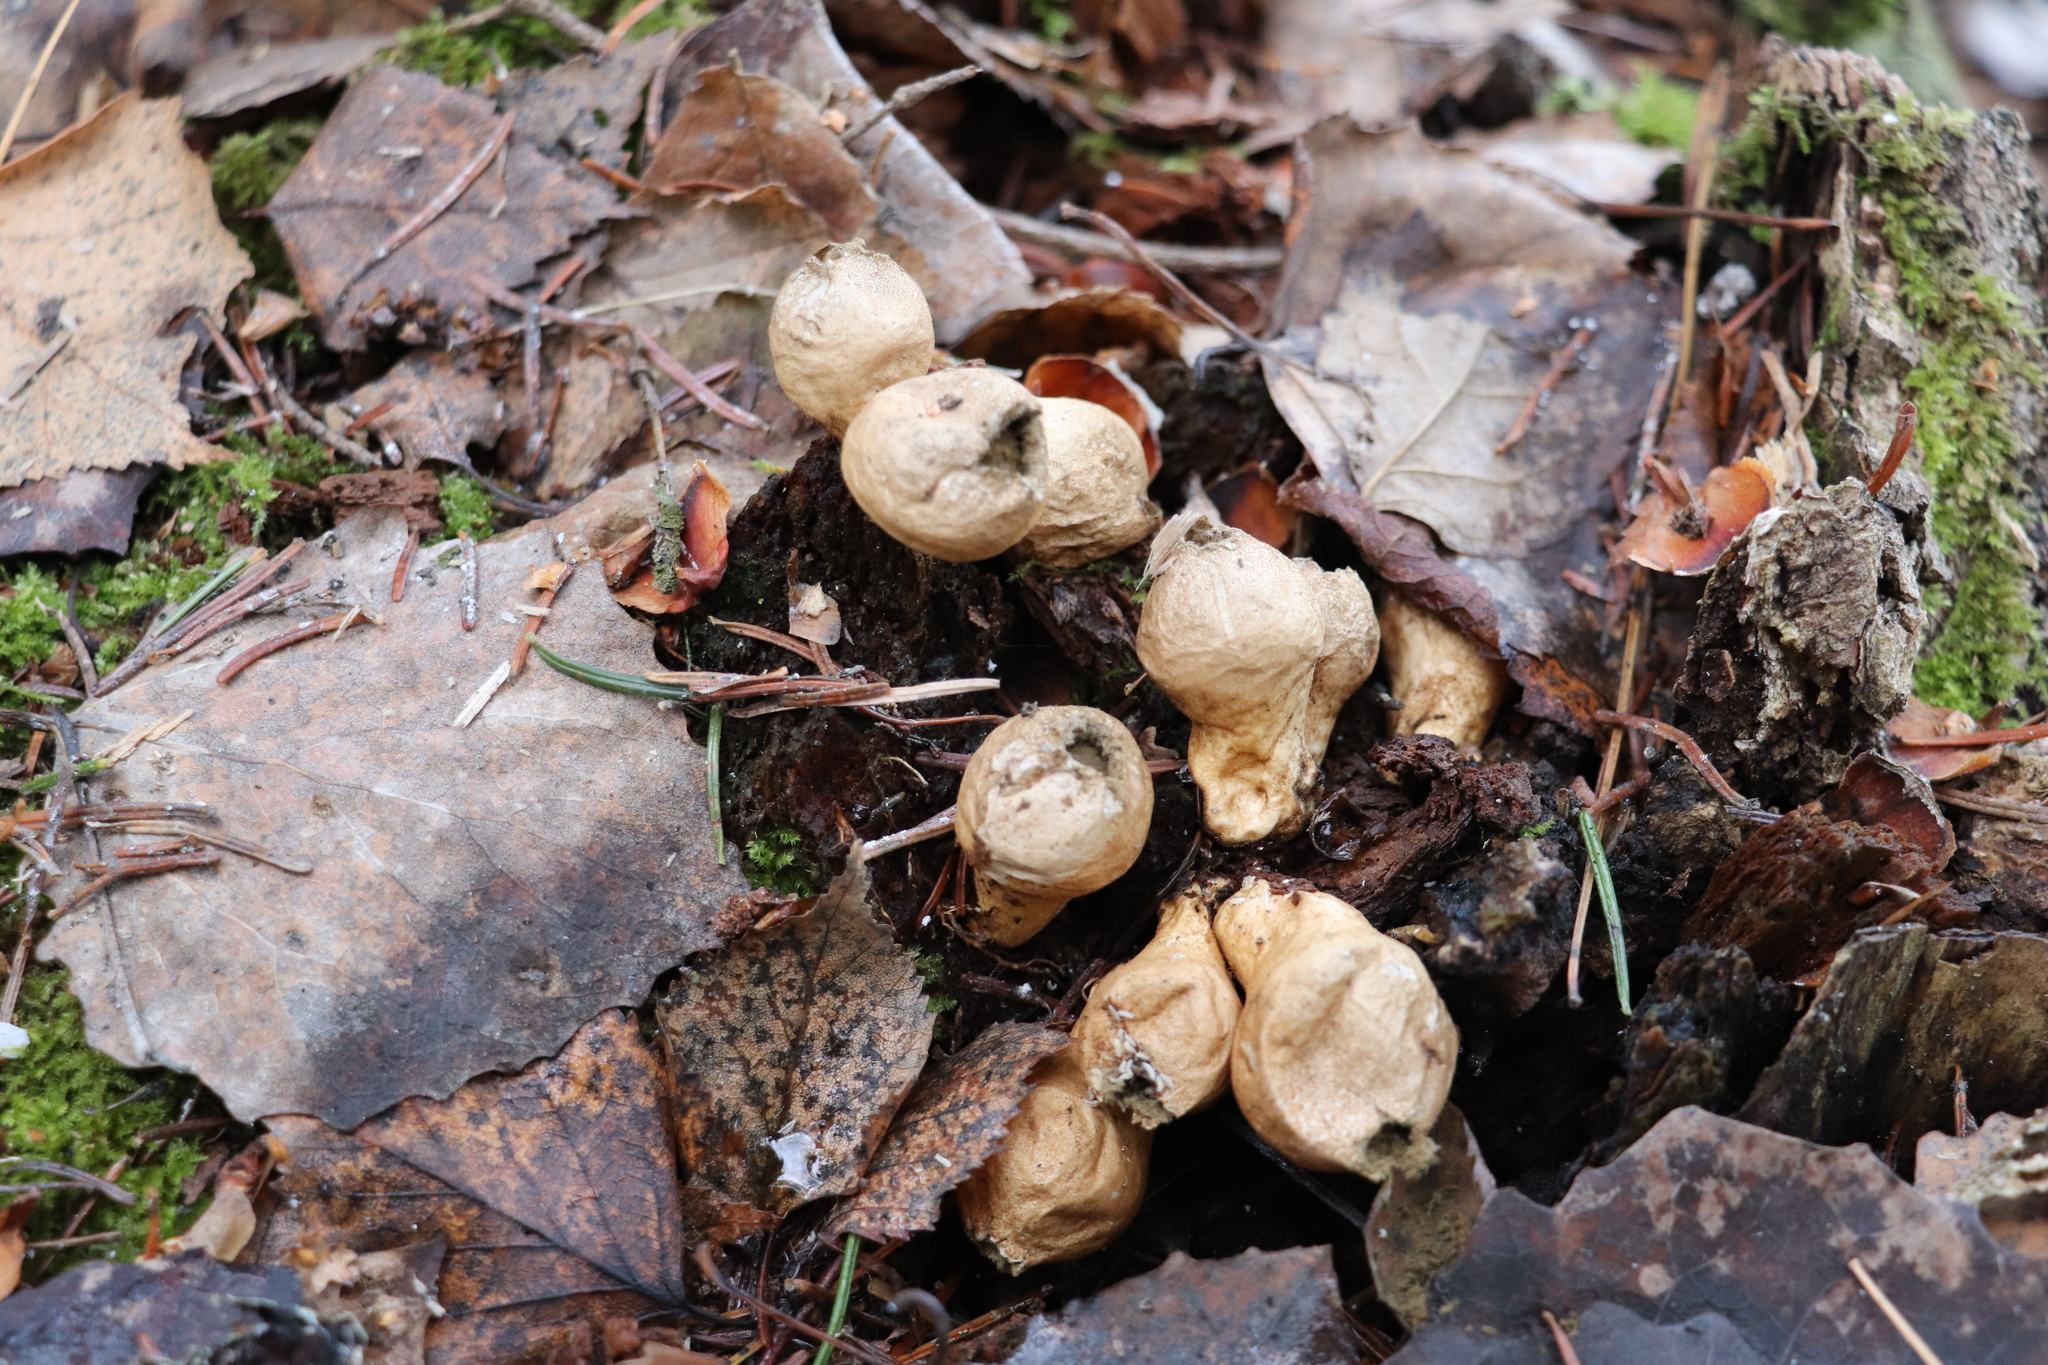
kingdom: Fungi
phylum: Basidiomycota
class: Agaricomycetes
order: Agaricales
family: Lycoperdaceae
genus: Apioperdon
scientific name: Apioperdon pyriforme
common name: Pear-shaped puffball
